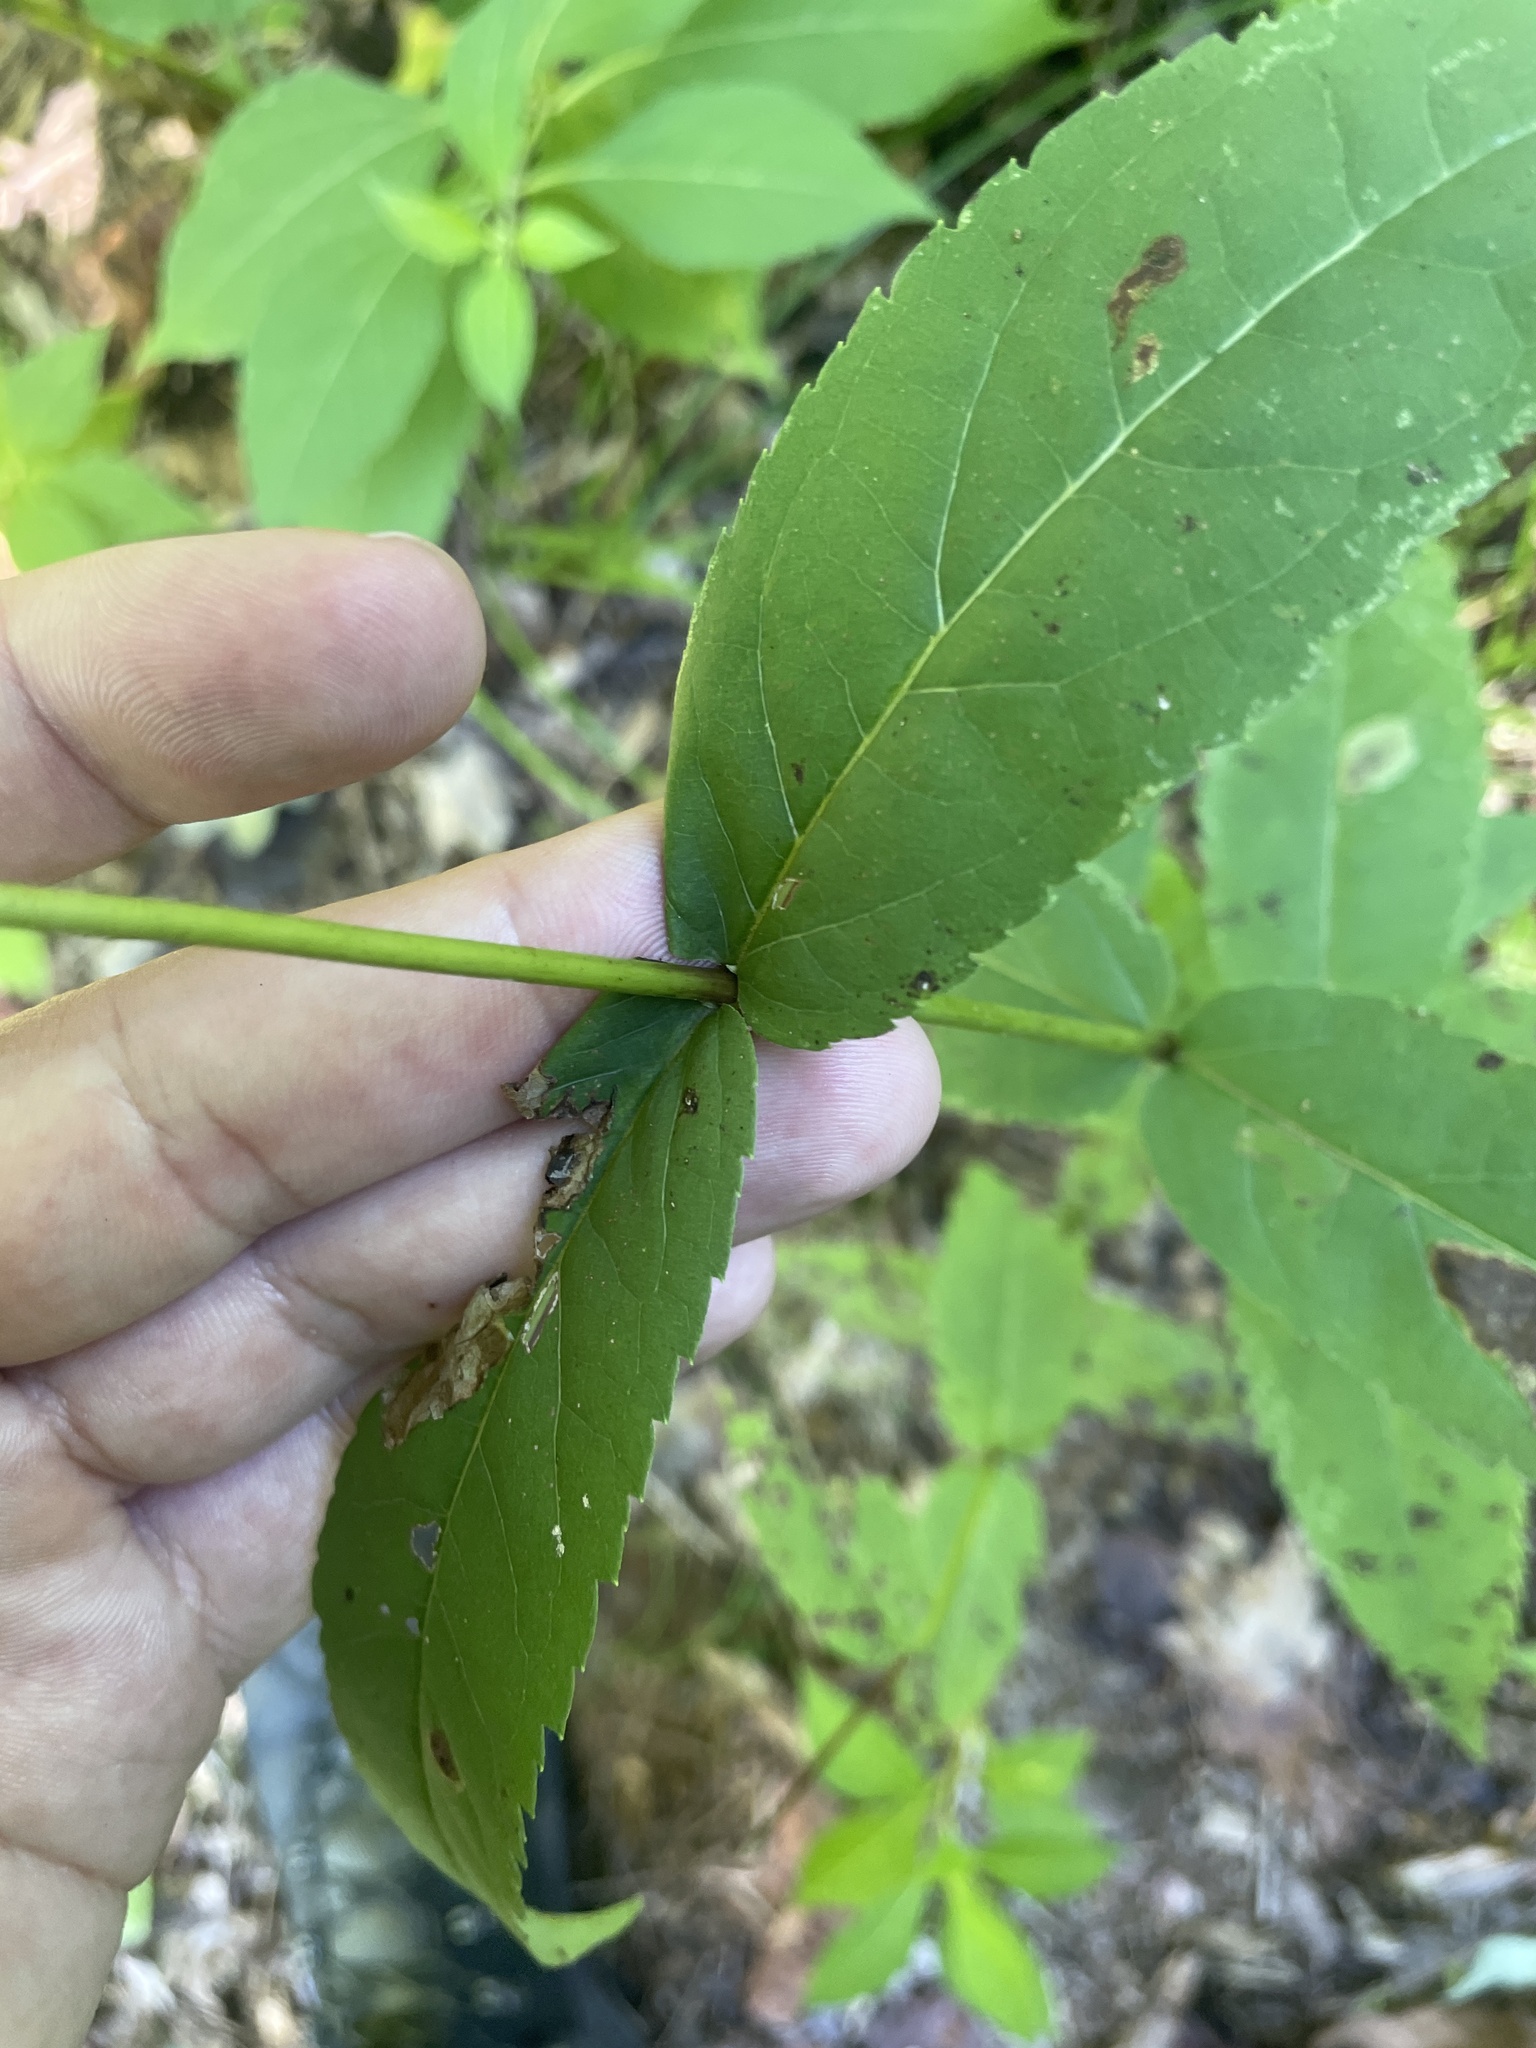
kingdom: Plantae
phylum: Tracheophyta
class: Magnoliopsida
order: Asterales
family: Asteraceae
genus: Eupatorium
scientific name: Eupatorium sessilifolium
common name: Upland boneset
